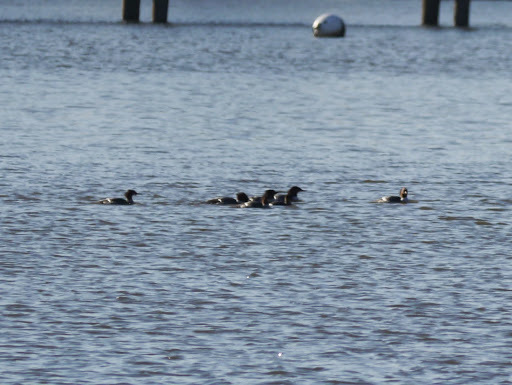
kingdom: Animalia
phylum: Chordata
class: Aves
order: Anseriformes
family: Anatidae
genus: Mergus
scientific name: Mergus merganser
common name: Common merganser
